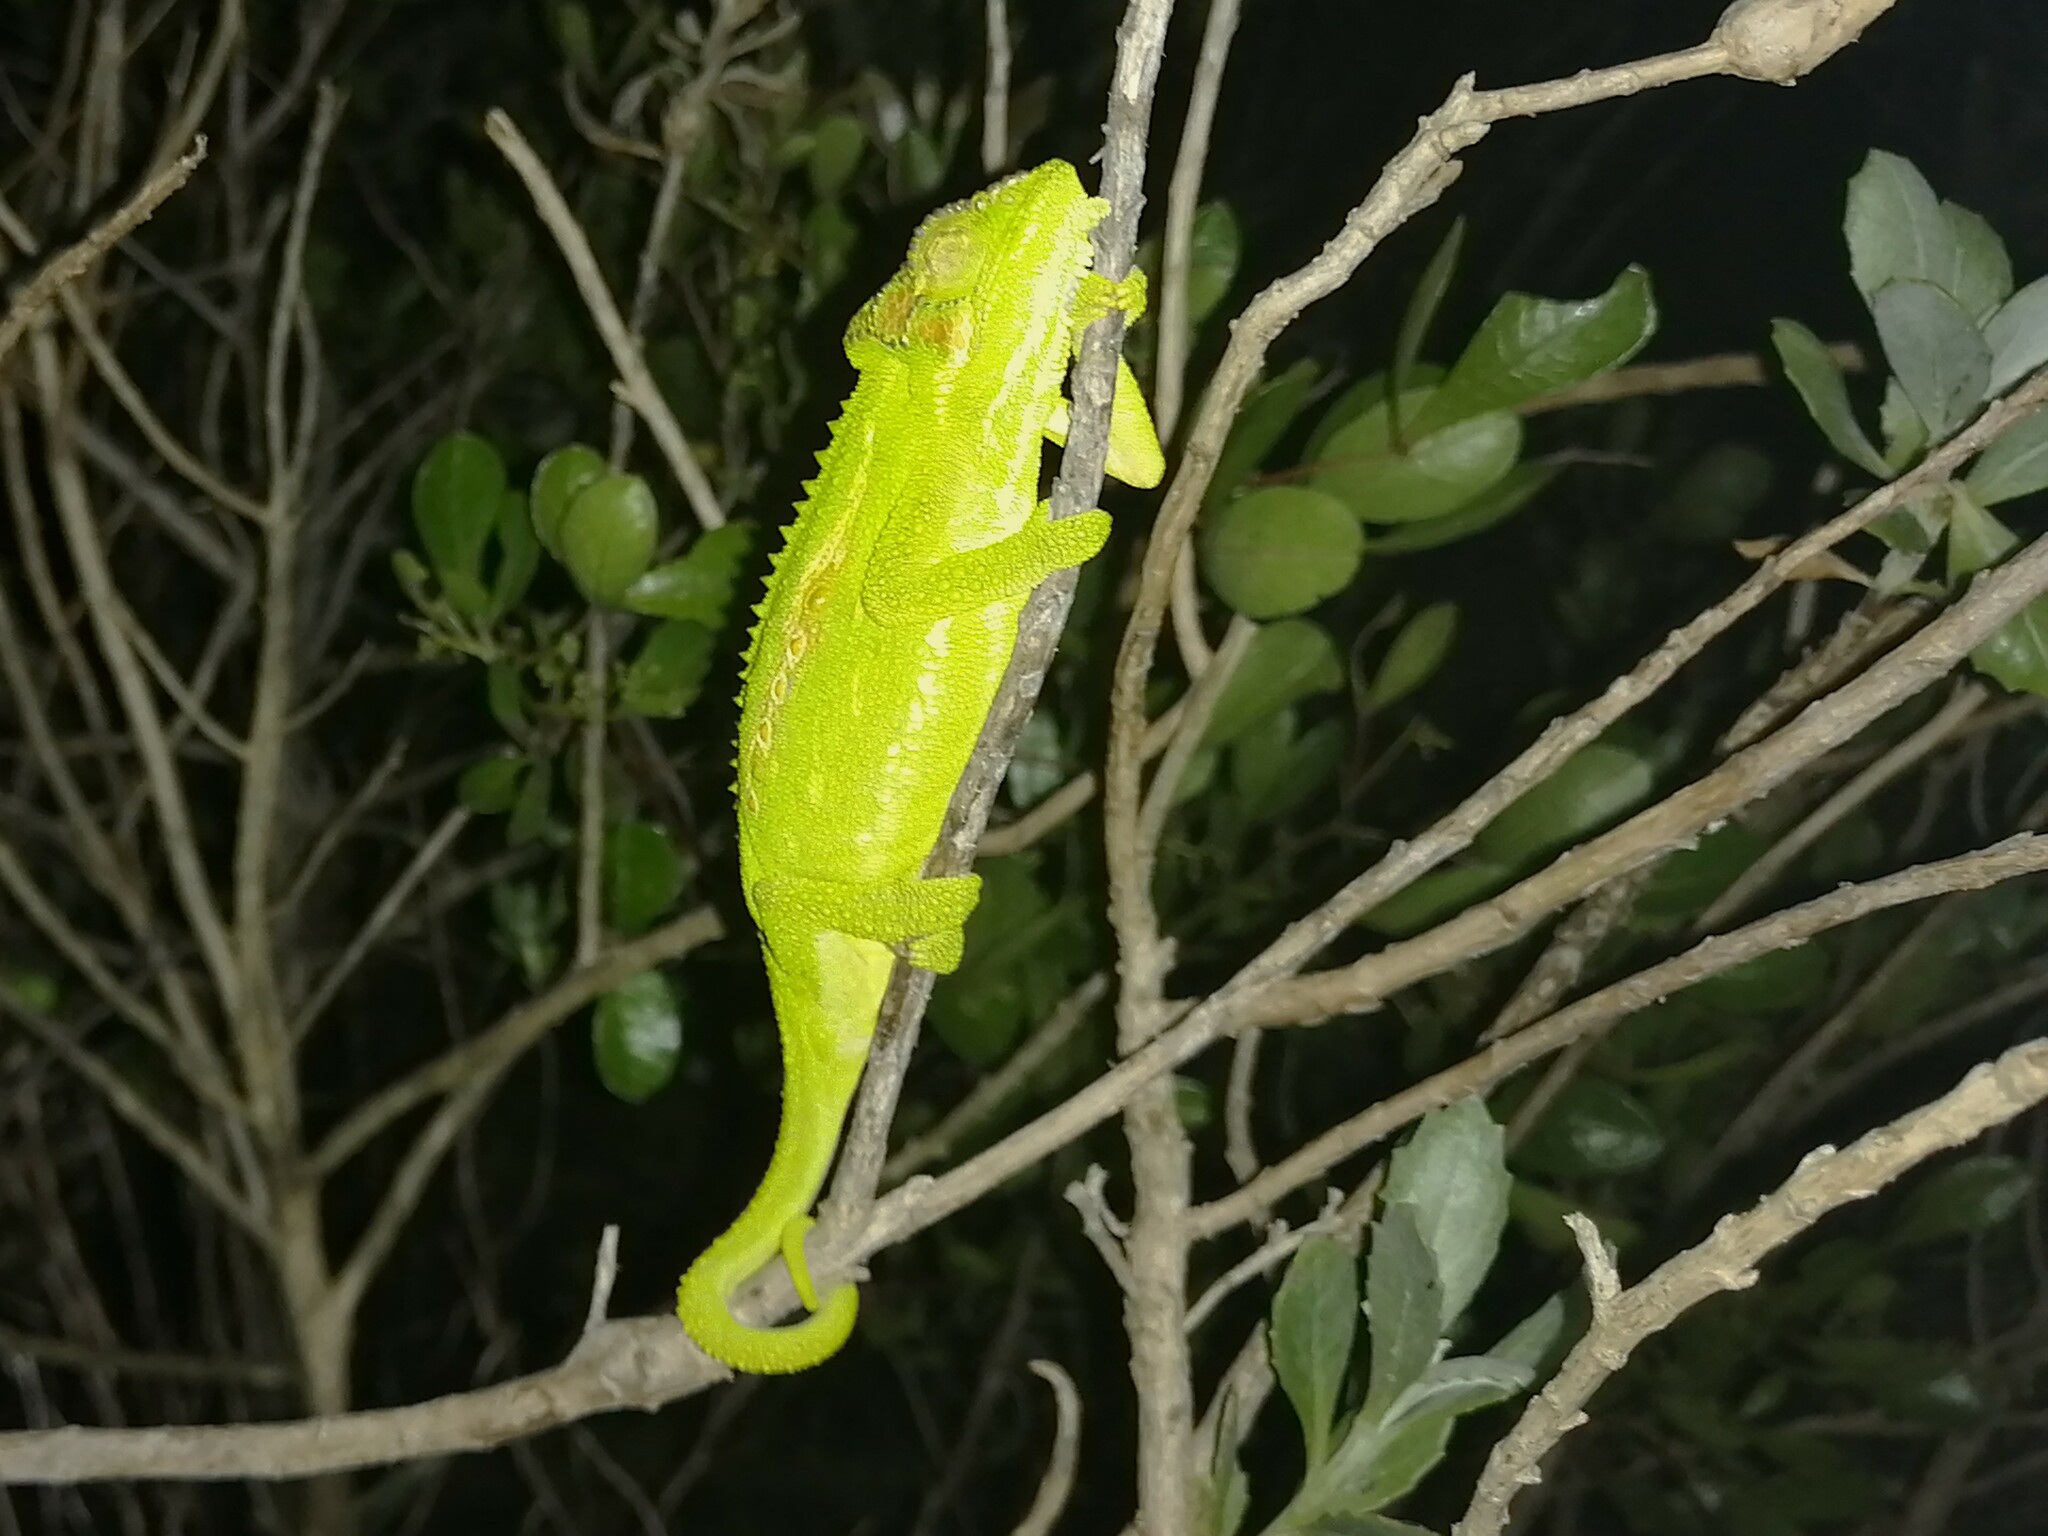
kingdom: Animalia
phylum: Chordata
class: Squamata
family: Chamaeleonidae
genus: Bradypodion
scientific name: Bradypodion pumilum
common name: Cape dwarf chameleon
